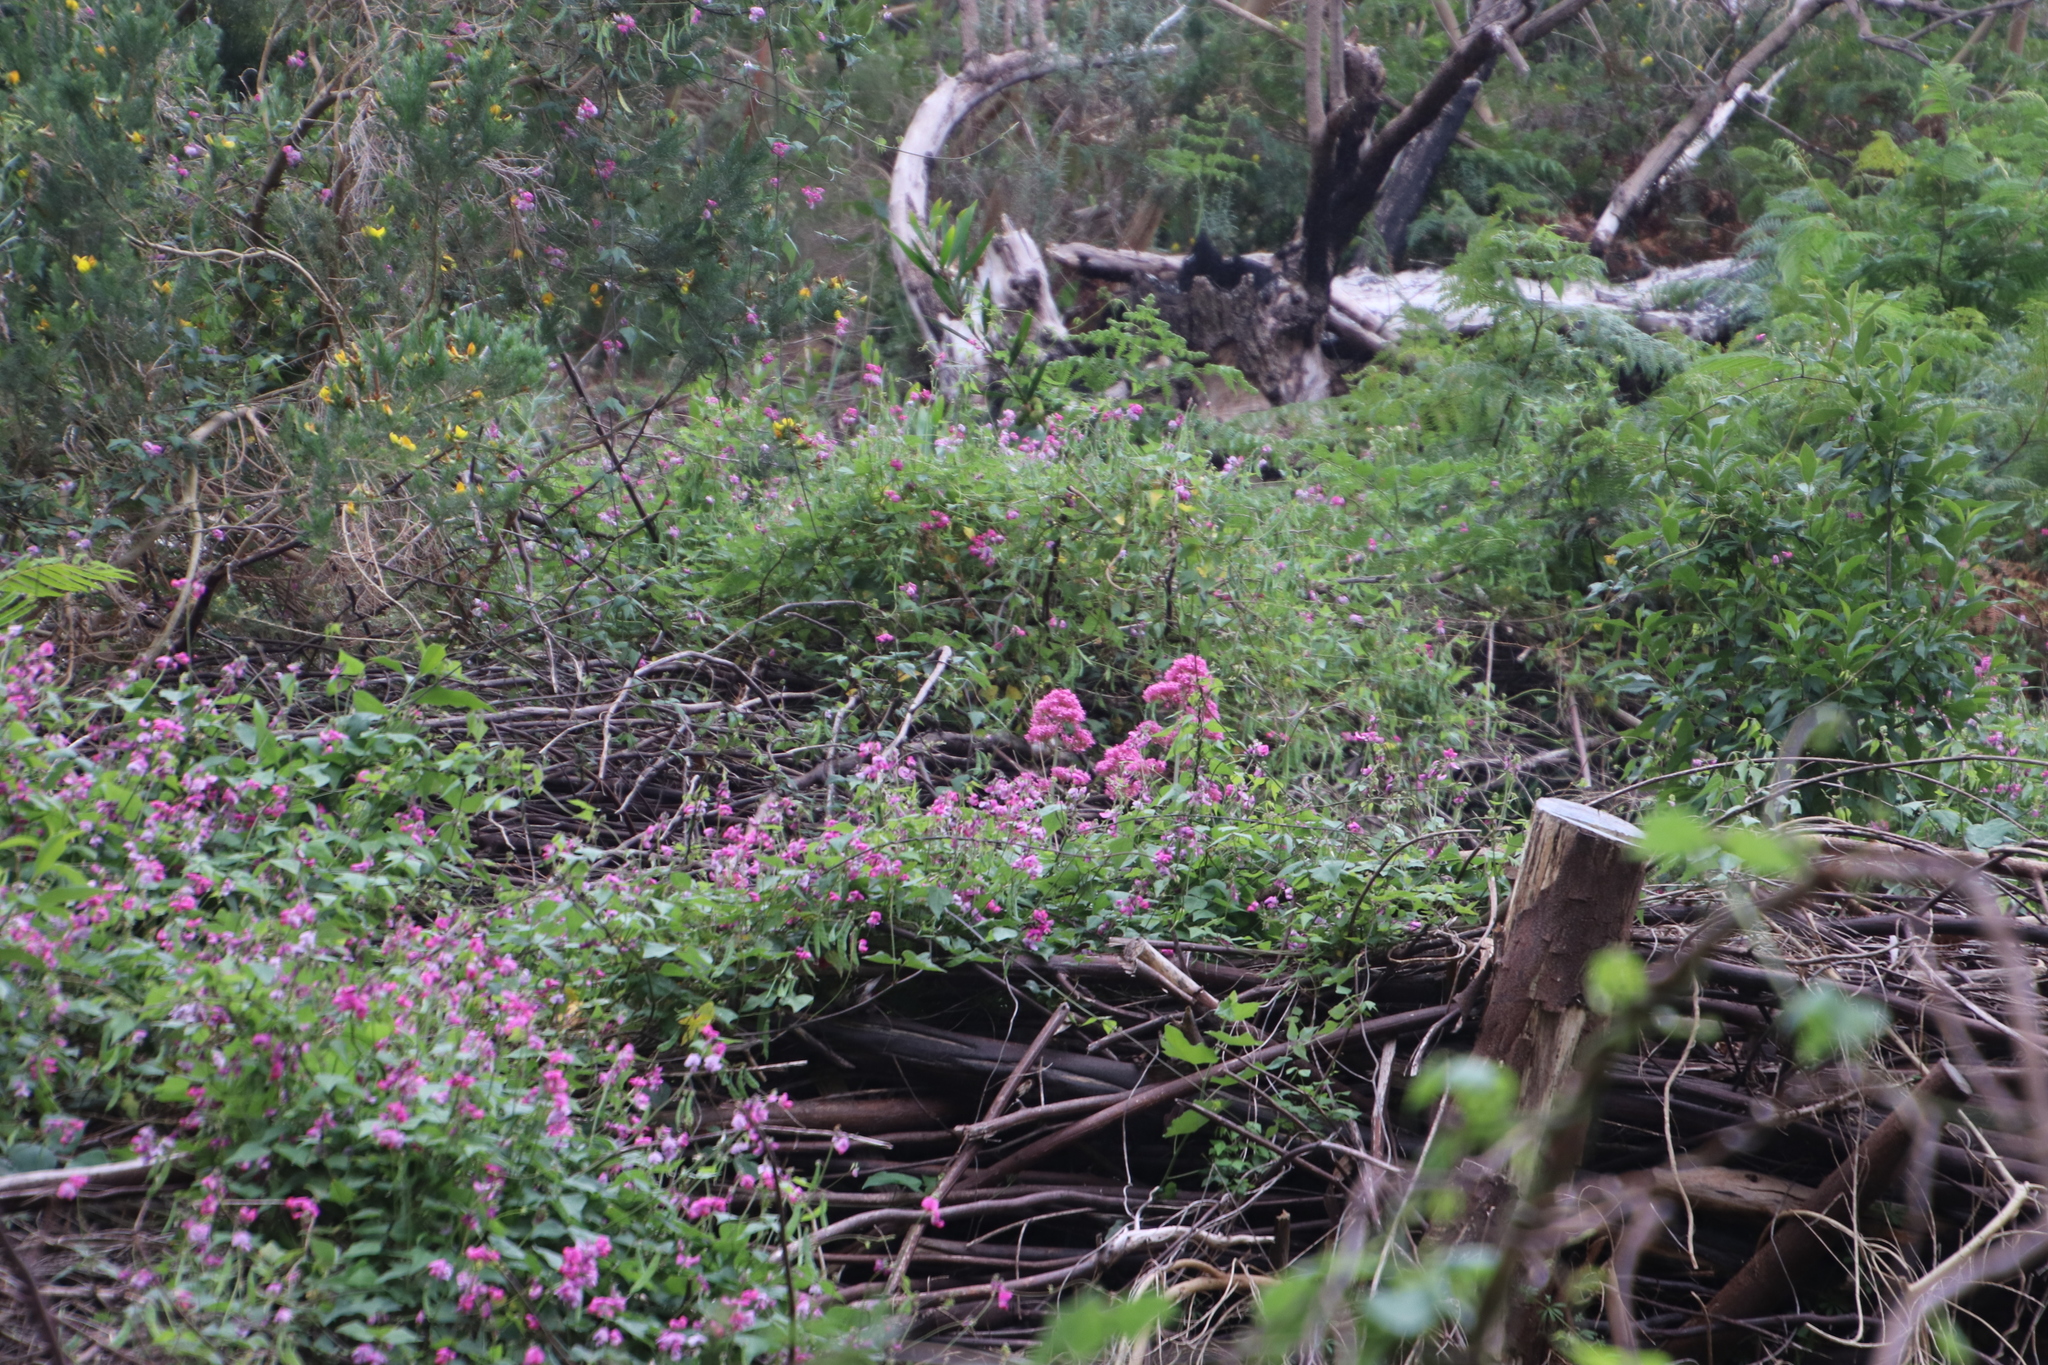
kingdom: Plantae
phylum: Tracheophyta
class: Magnoliopsida
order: Dipsacales
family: Caprifoliaceae
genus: Centranthus
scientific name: Centranthus ruber
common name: Red valerian
